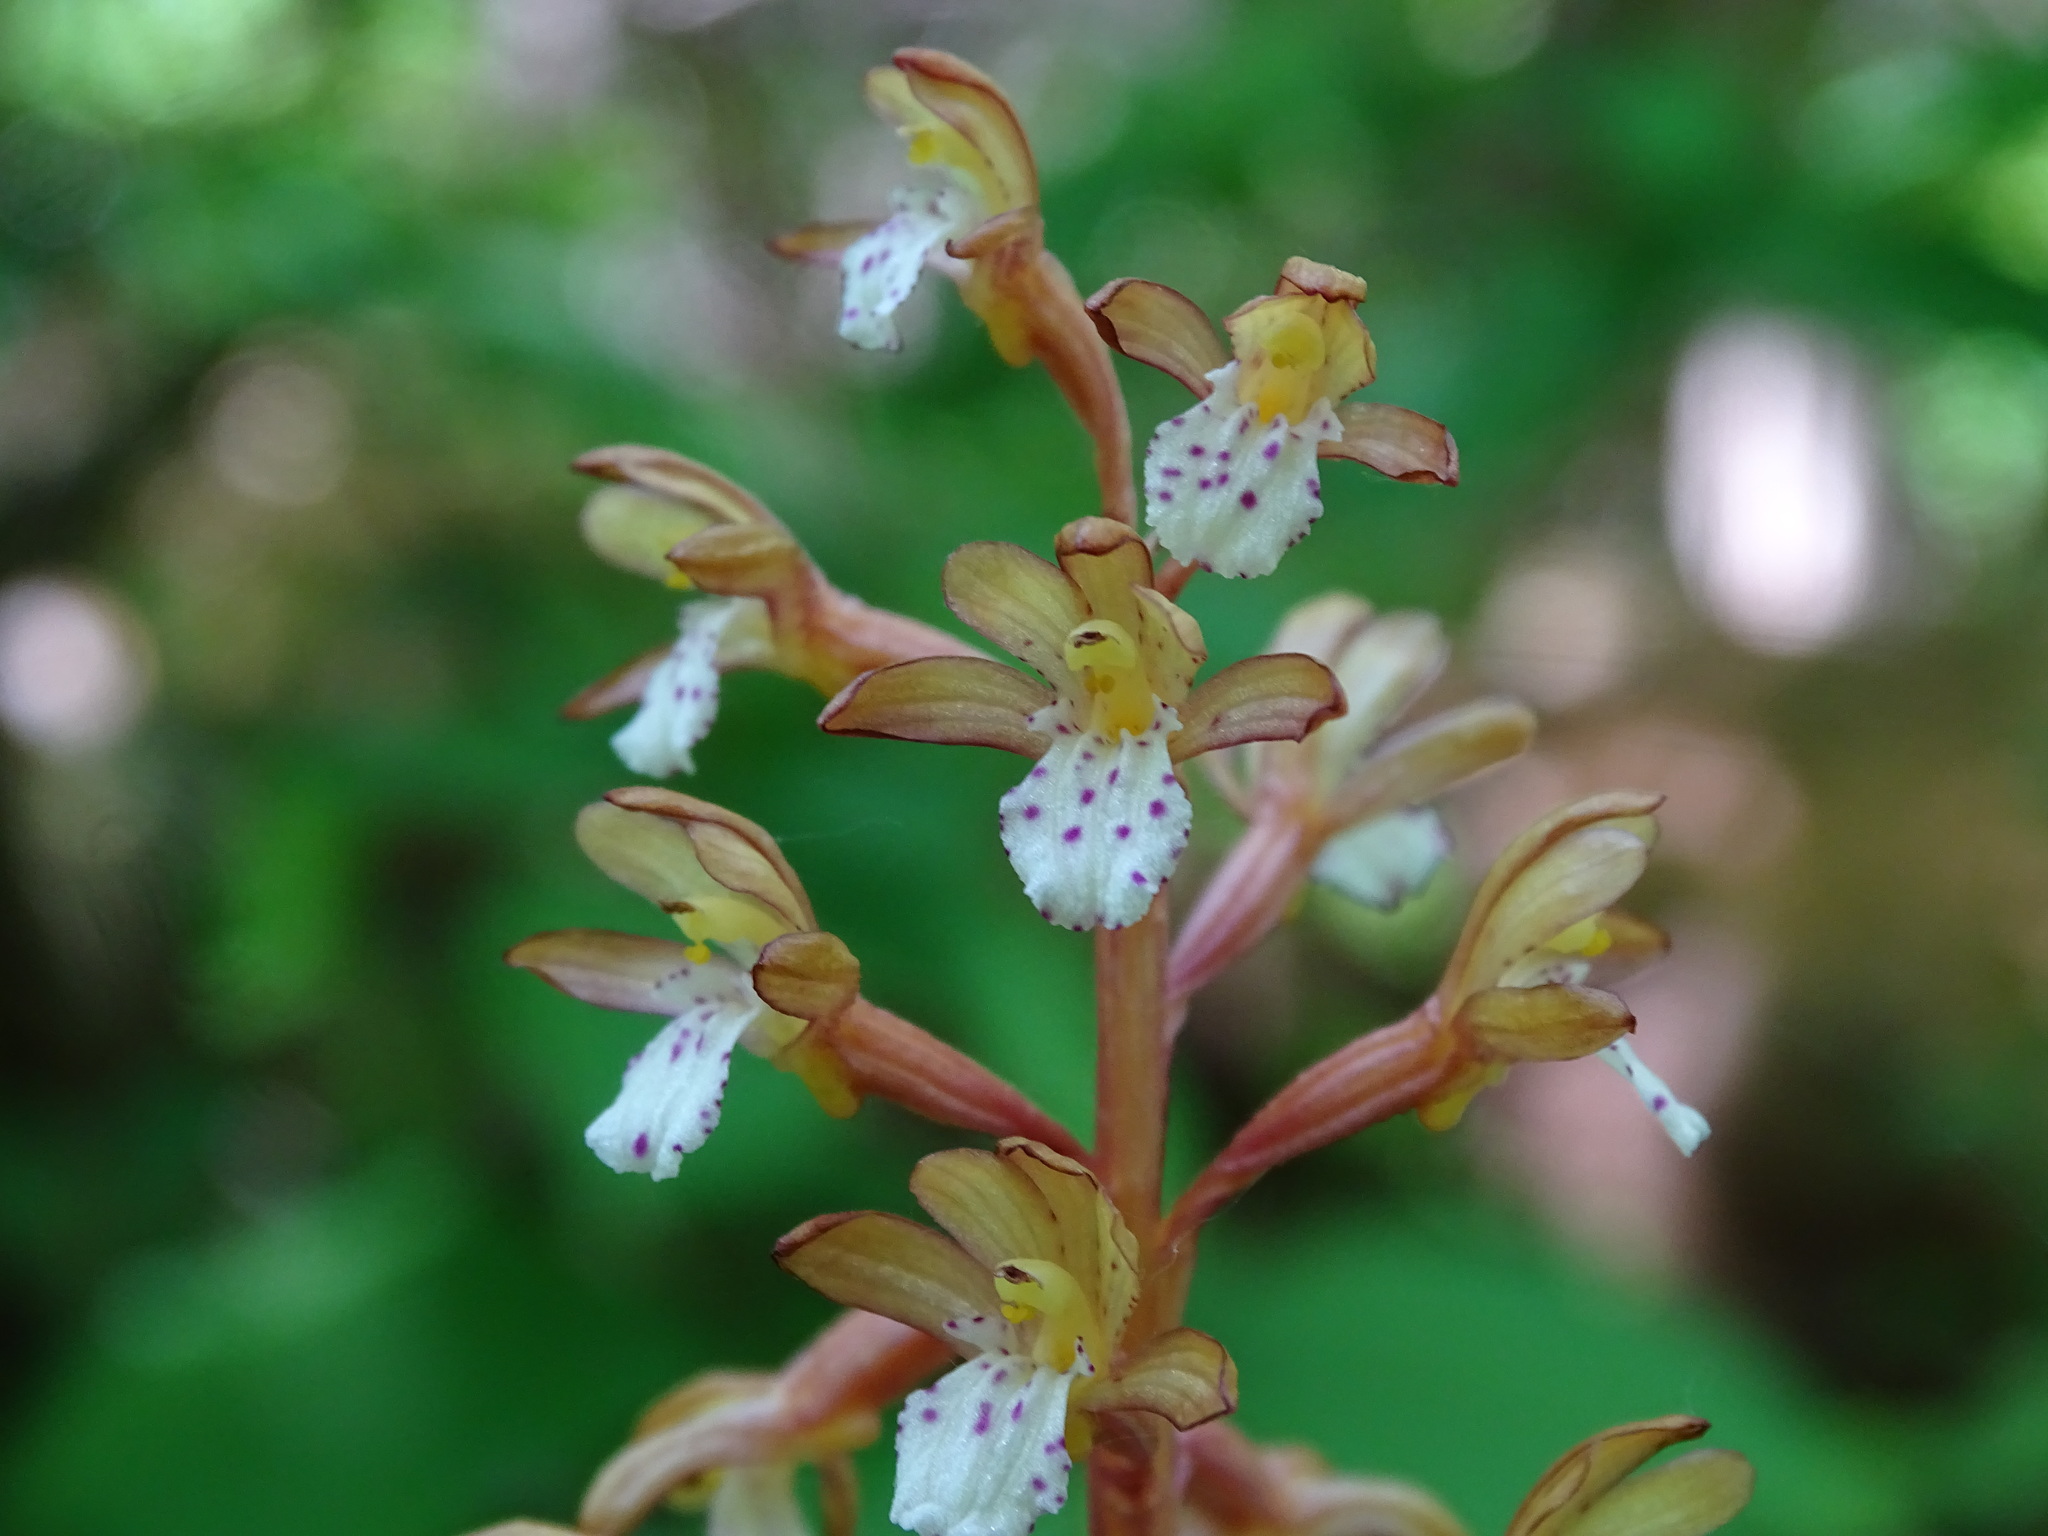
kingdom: Plantae
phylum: Tracheophyta
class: Liliopsida
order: Asparagales
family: Orchidaceae
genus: Corallorhiza
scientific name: Corallorhiza maculata
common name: Spotted coralroot
